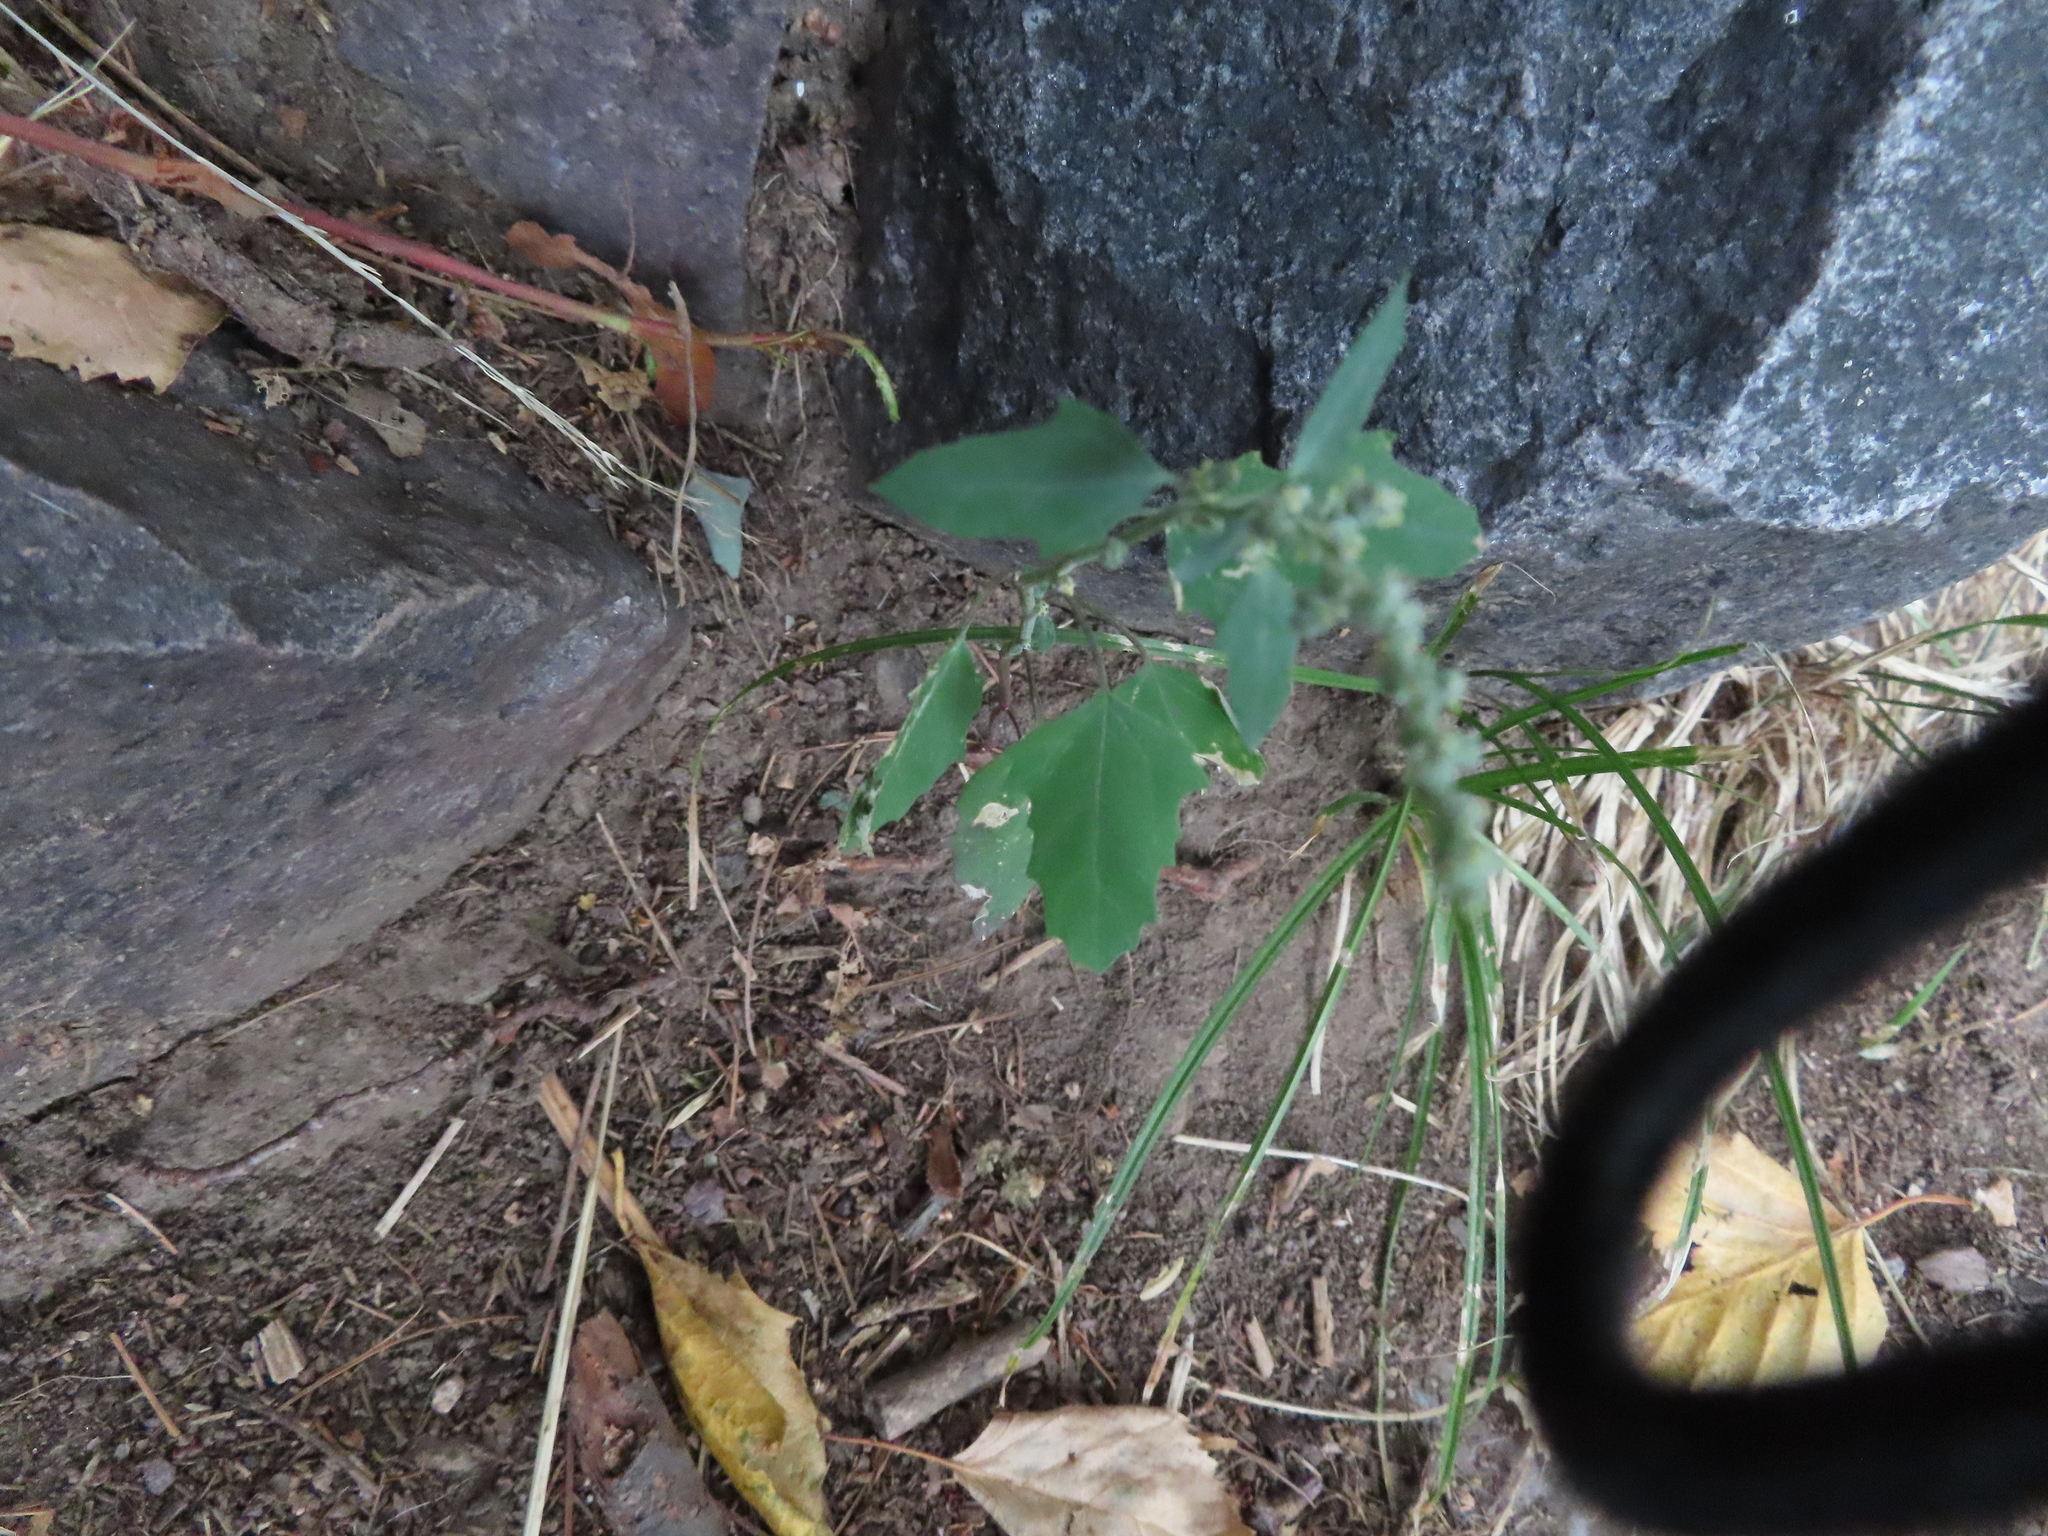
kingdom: Plantae
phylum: Tracheophyta
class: Magnoliopsida
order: Caryophyllales
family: Amaranthaceae
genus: Chenopodium
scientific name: Chenopodium album
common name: Fat-hen
